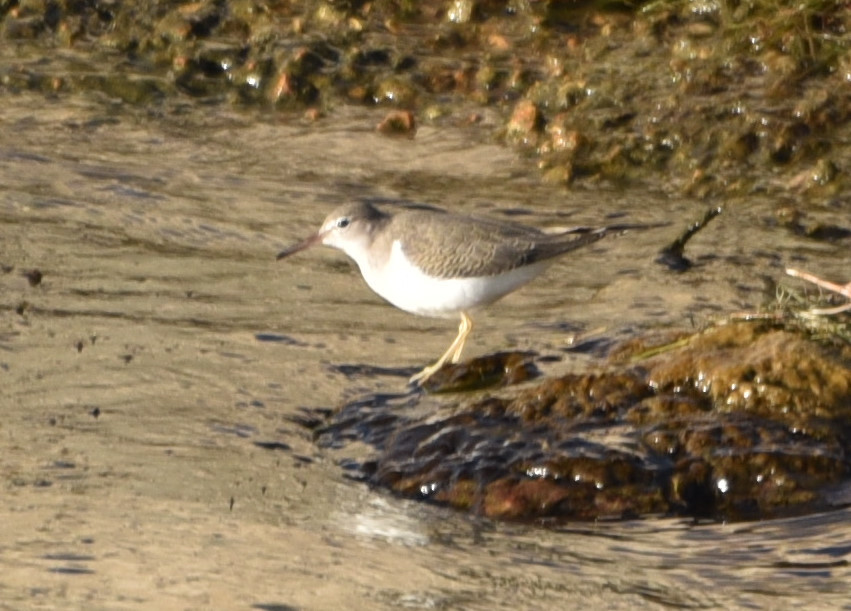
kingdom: Animalia
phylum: Chordata
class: Aves
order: Charadriiformes
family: Scolopacidae
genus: Actitis
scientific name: Actitis macularius
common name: Spotted sandpiper
